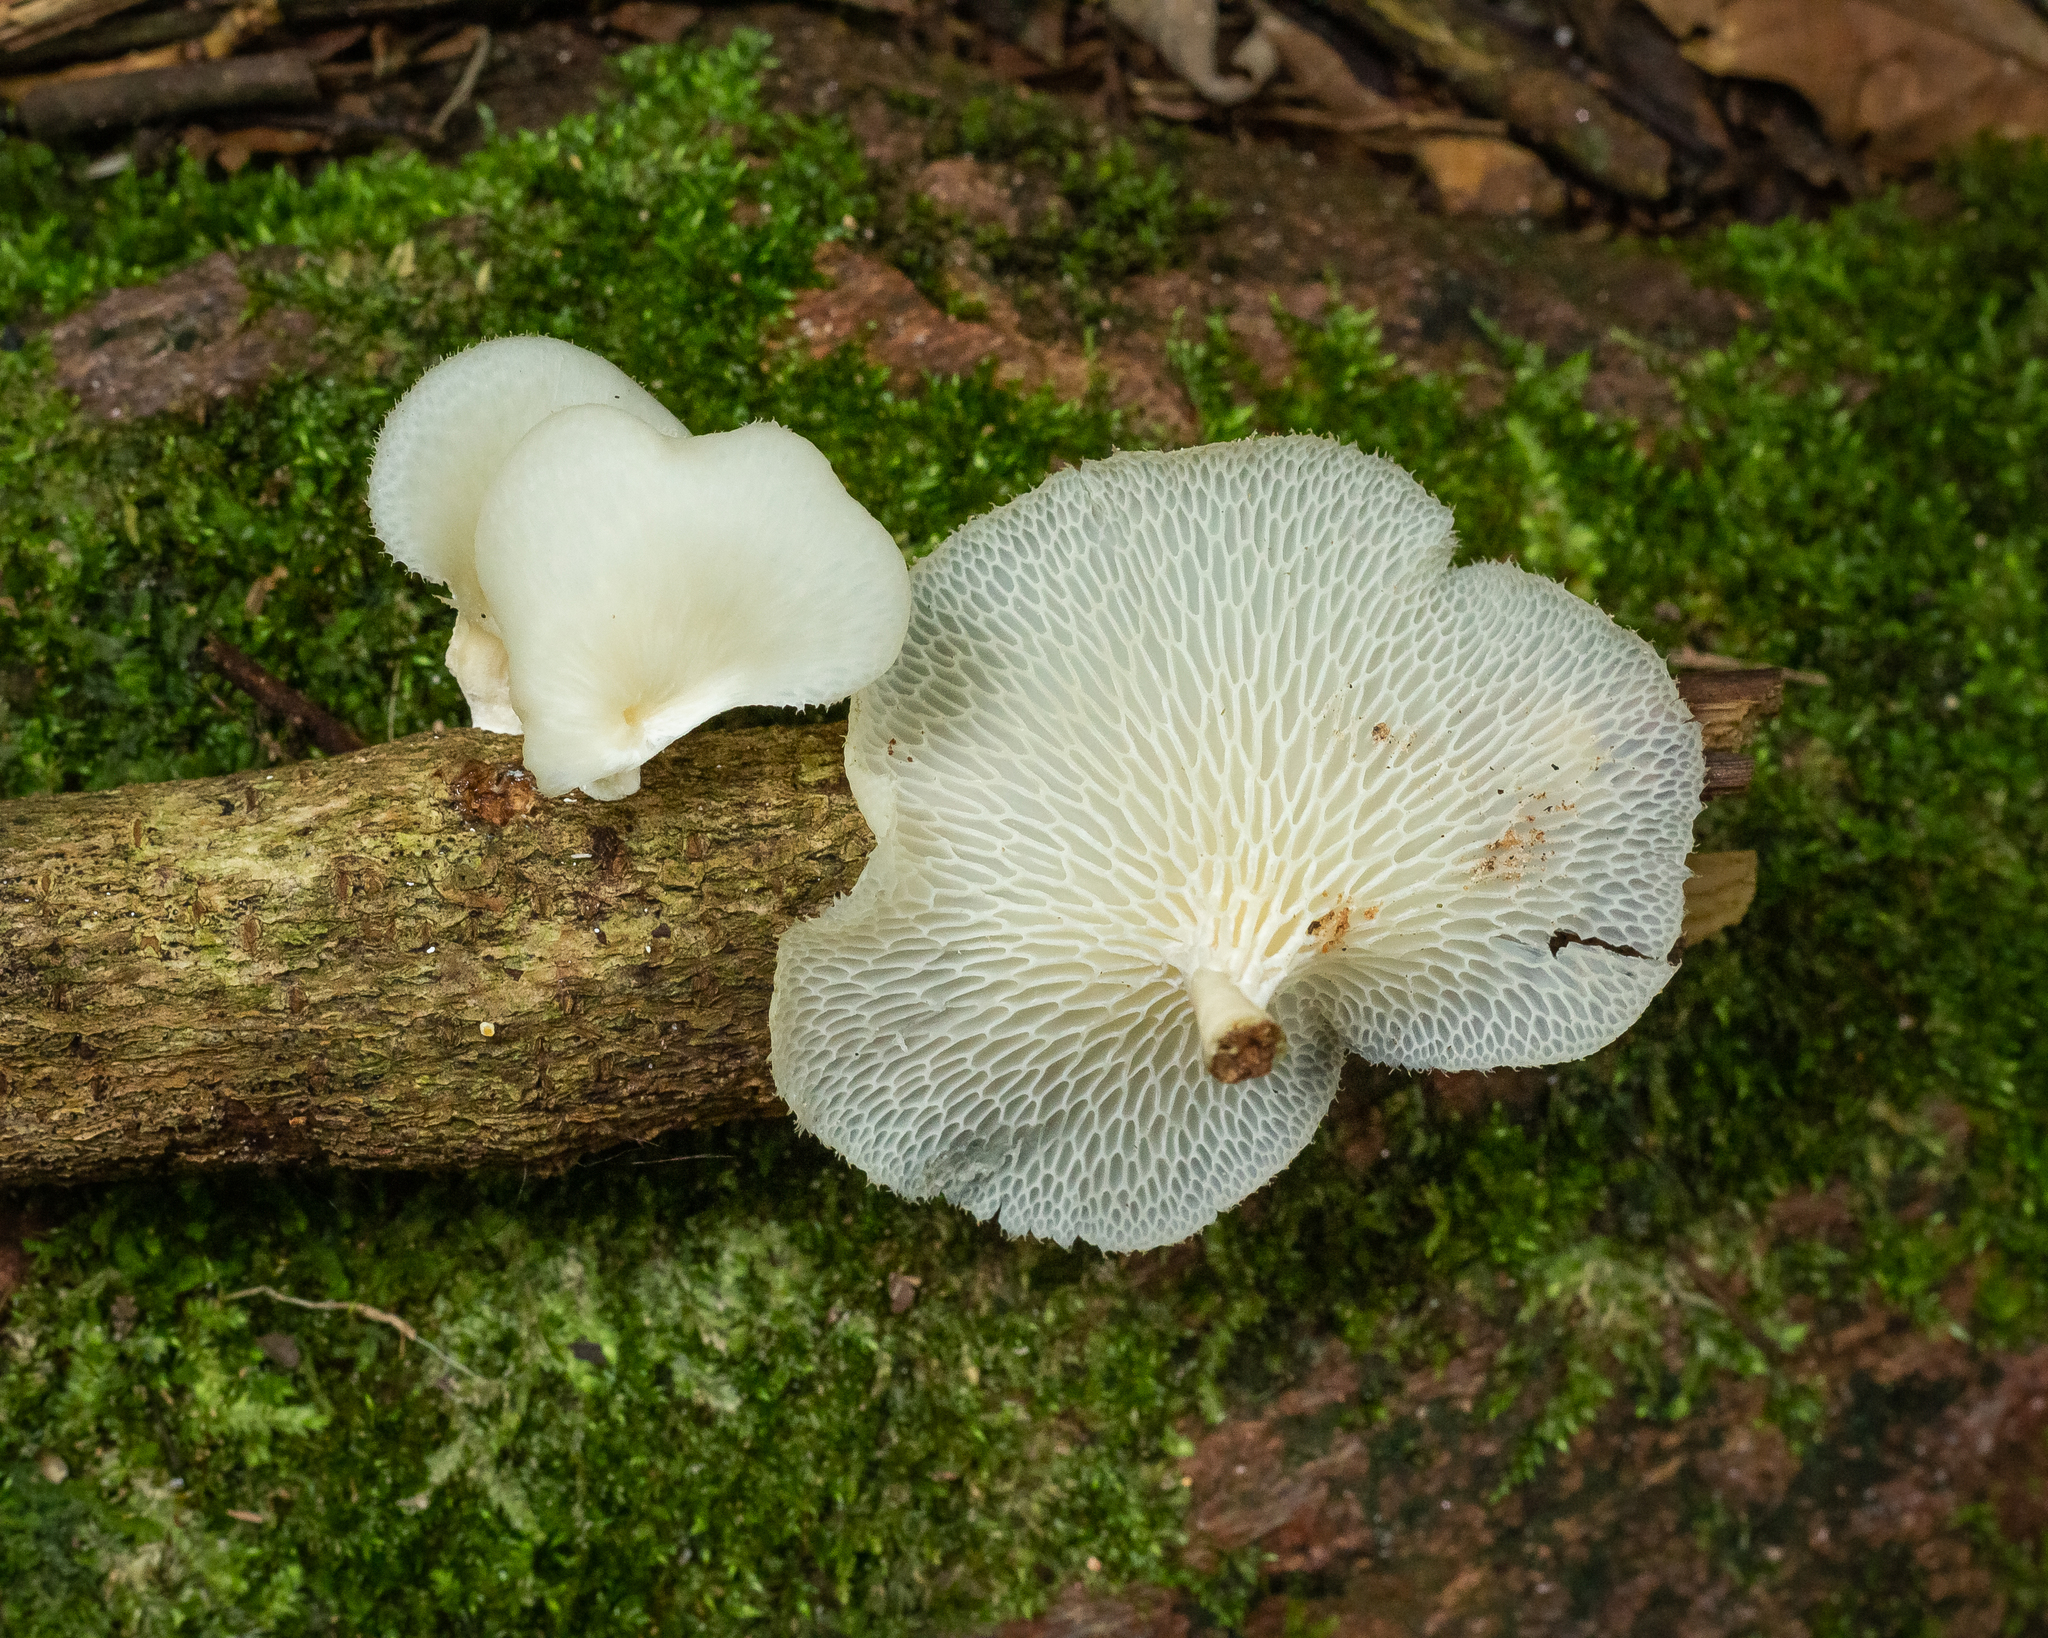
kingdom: Fungi
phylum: Basidiomycota
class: Agaricomycetes
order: Polyporales
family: Polyporaceae
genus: Favolus
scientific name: Favolus tenuiculus
